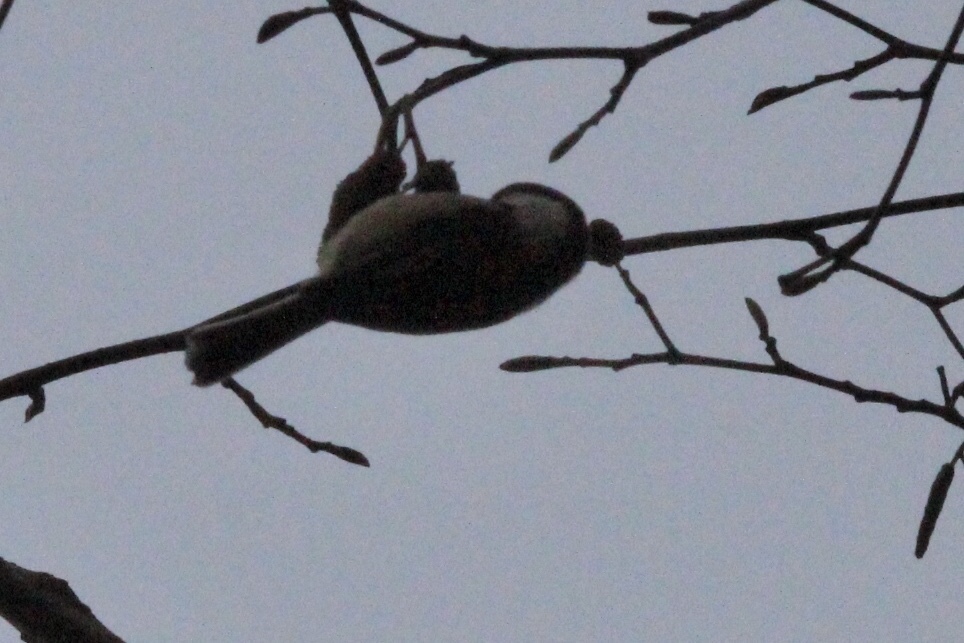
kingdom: Animalia
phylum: Chordata
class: Aves
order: Passeriformes
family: Paridae
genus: Poecile
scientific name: Poecile atricapillus
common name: Black-capped chickadee
